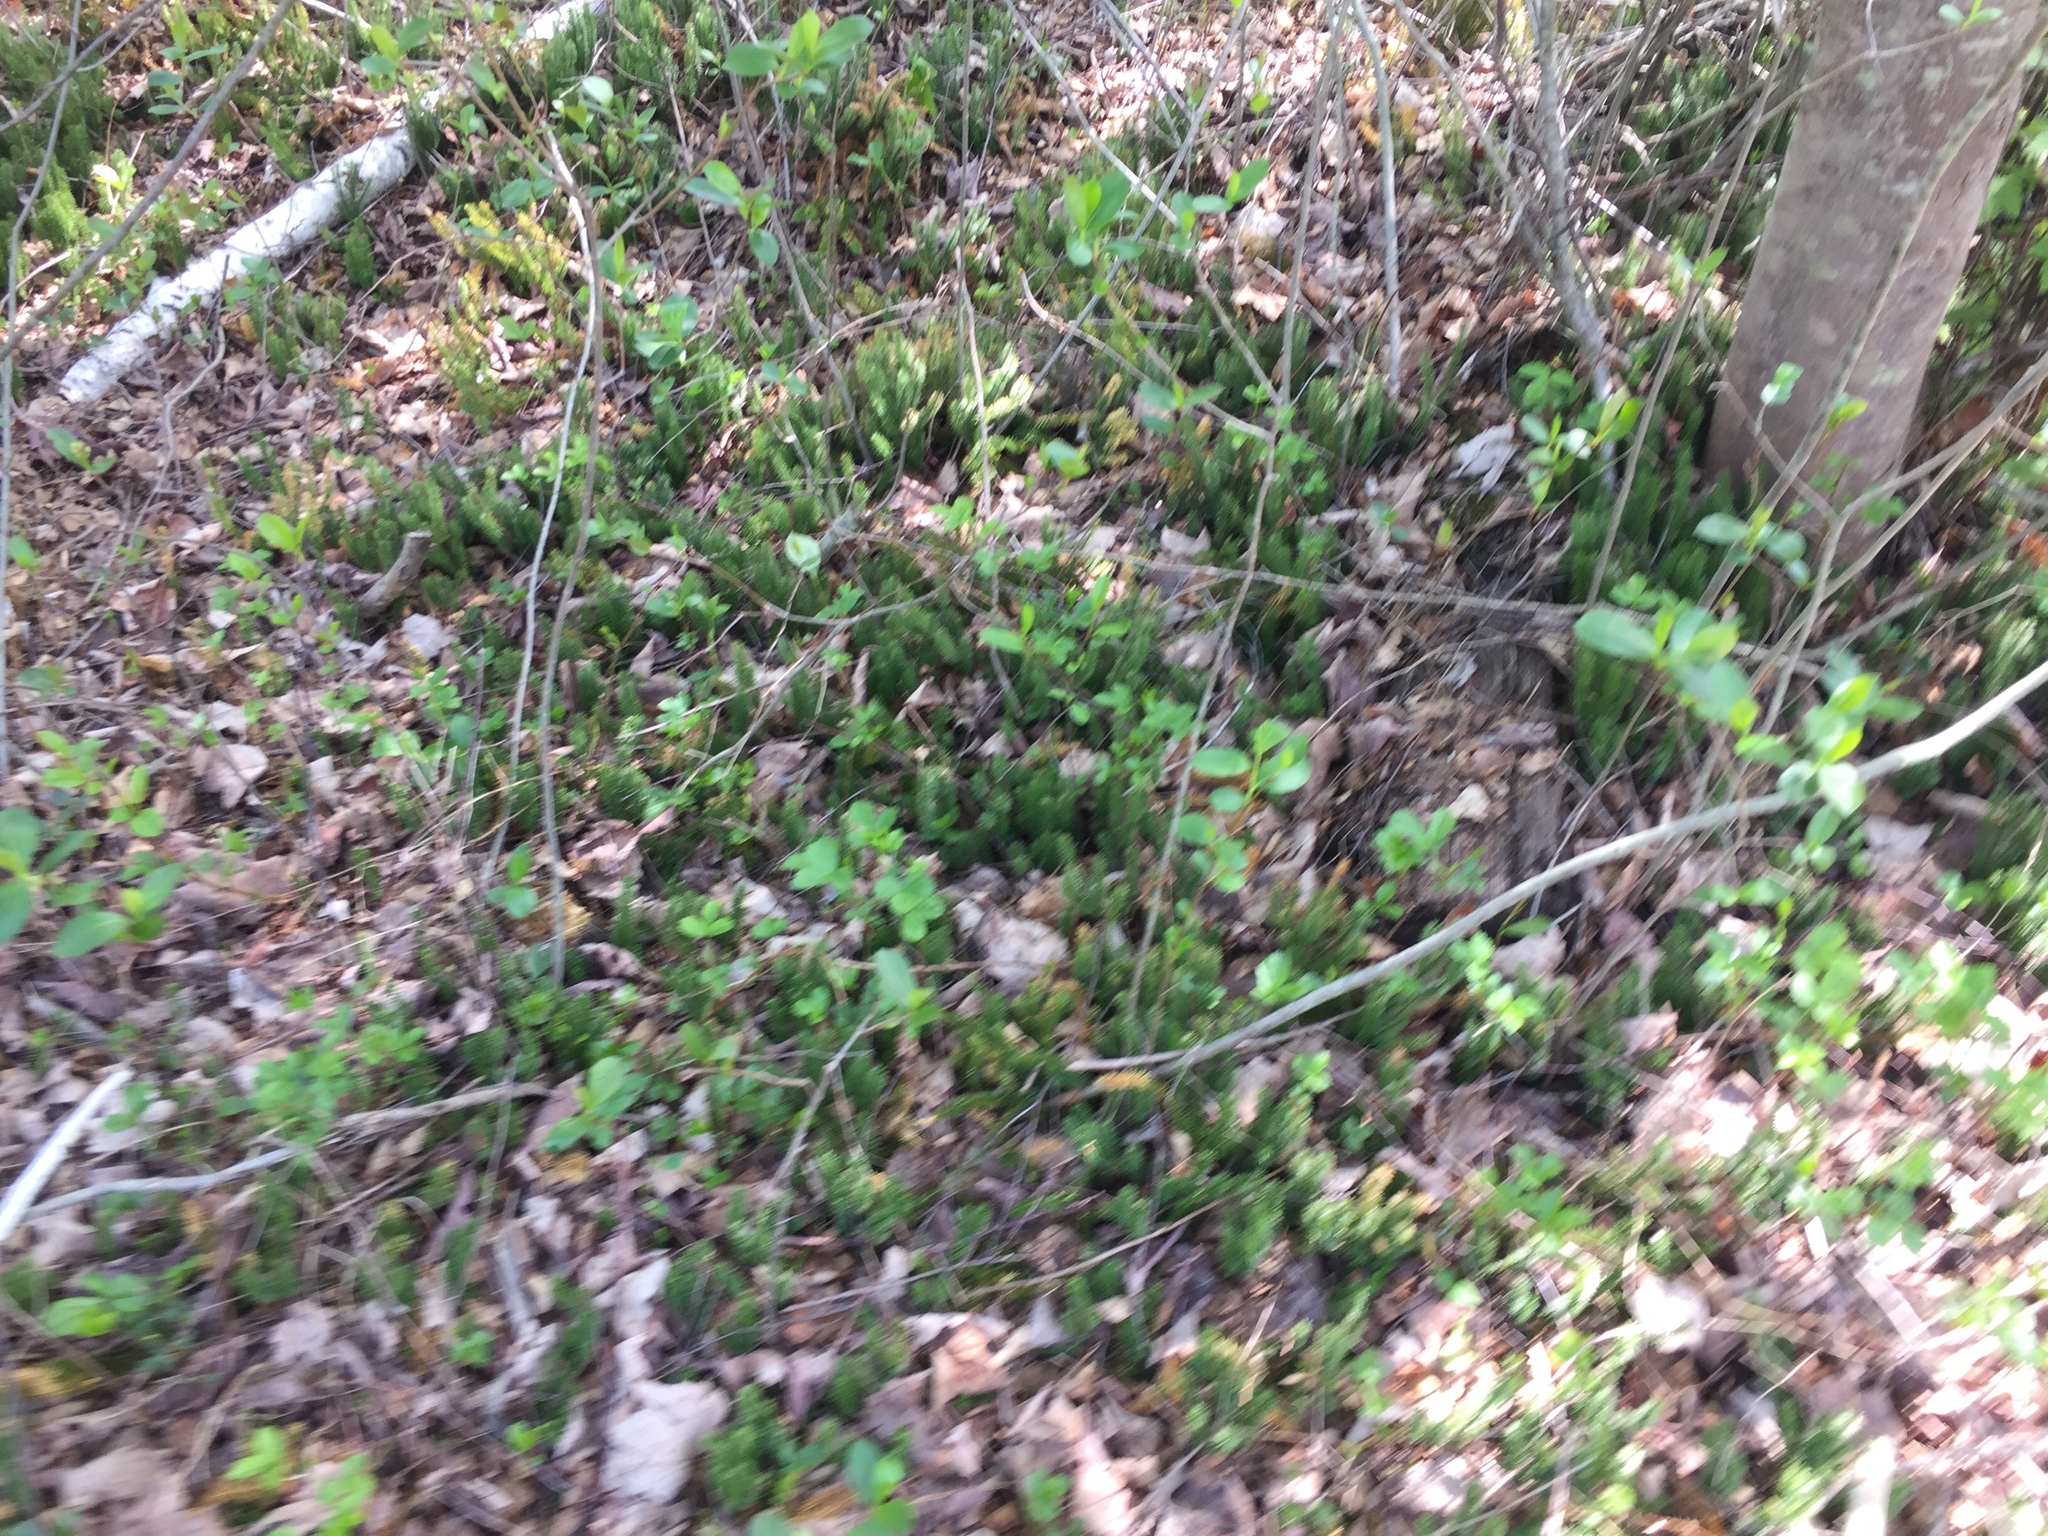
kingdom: Plantae
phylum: Tracheophyta
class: Lycopodiopsida
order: Lycopodiales
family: Lycopodiaceae
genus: Spinulum
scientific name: Spinulum annotinum
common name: Interrupted club-moss
